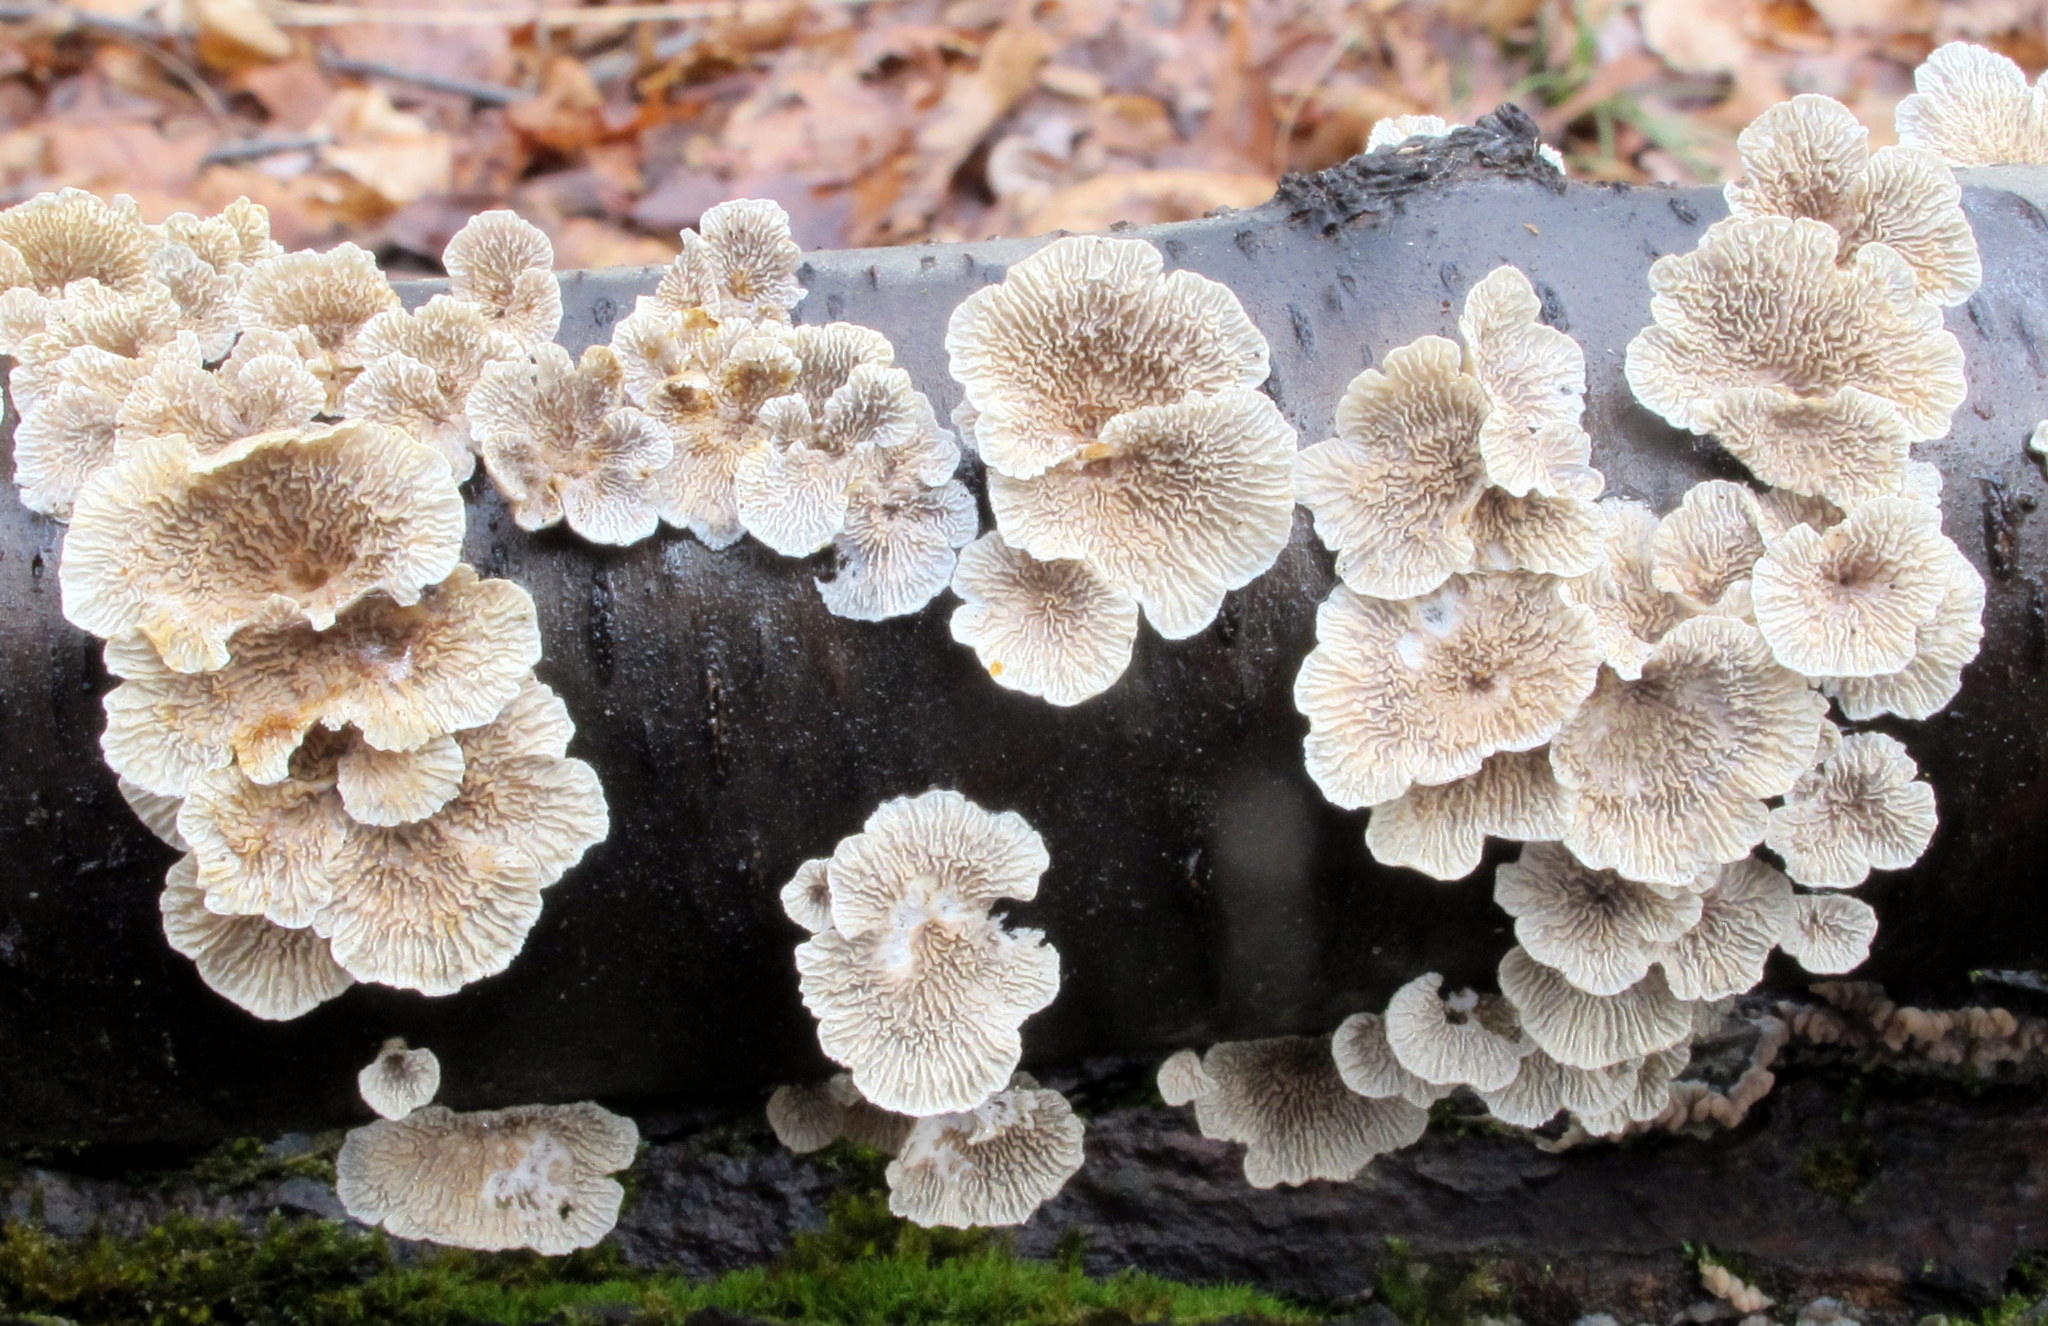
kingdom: Fungi
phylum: Basidiomycota
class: Agaricomycetes
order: Amylocorticiales
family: Amylocorticiaceae
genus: Plicaturopsis
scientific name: Plicaturopsis crispa
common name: Crimped gill
